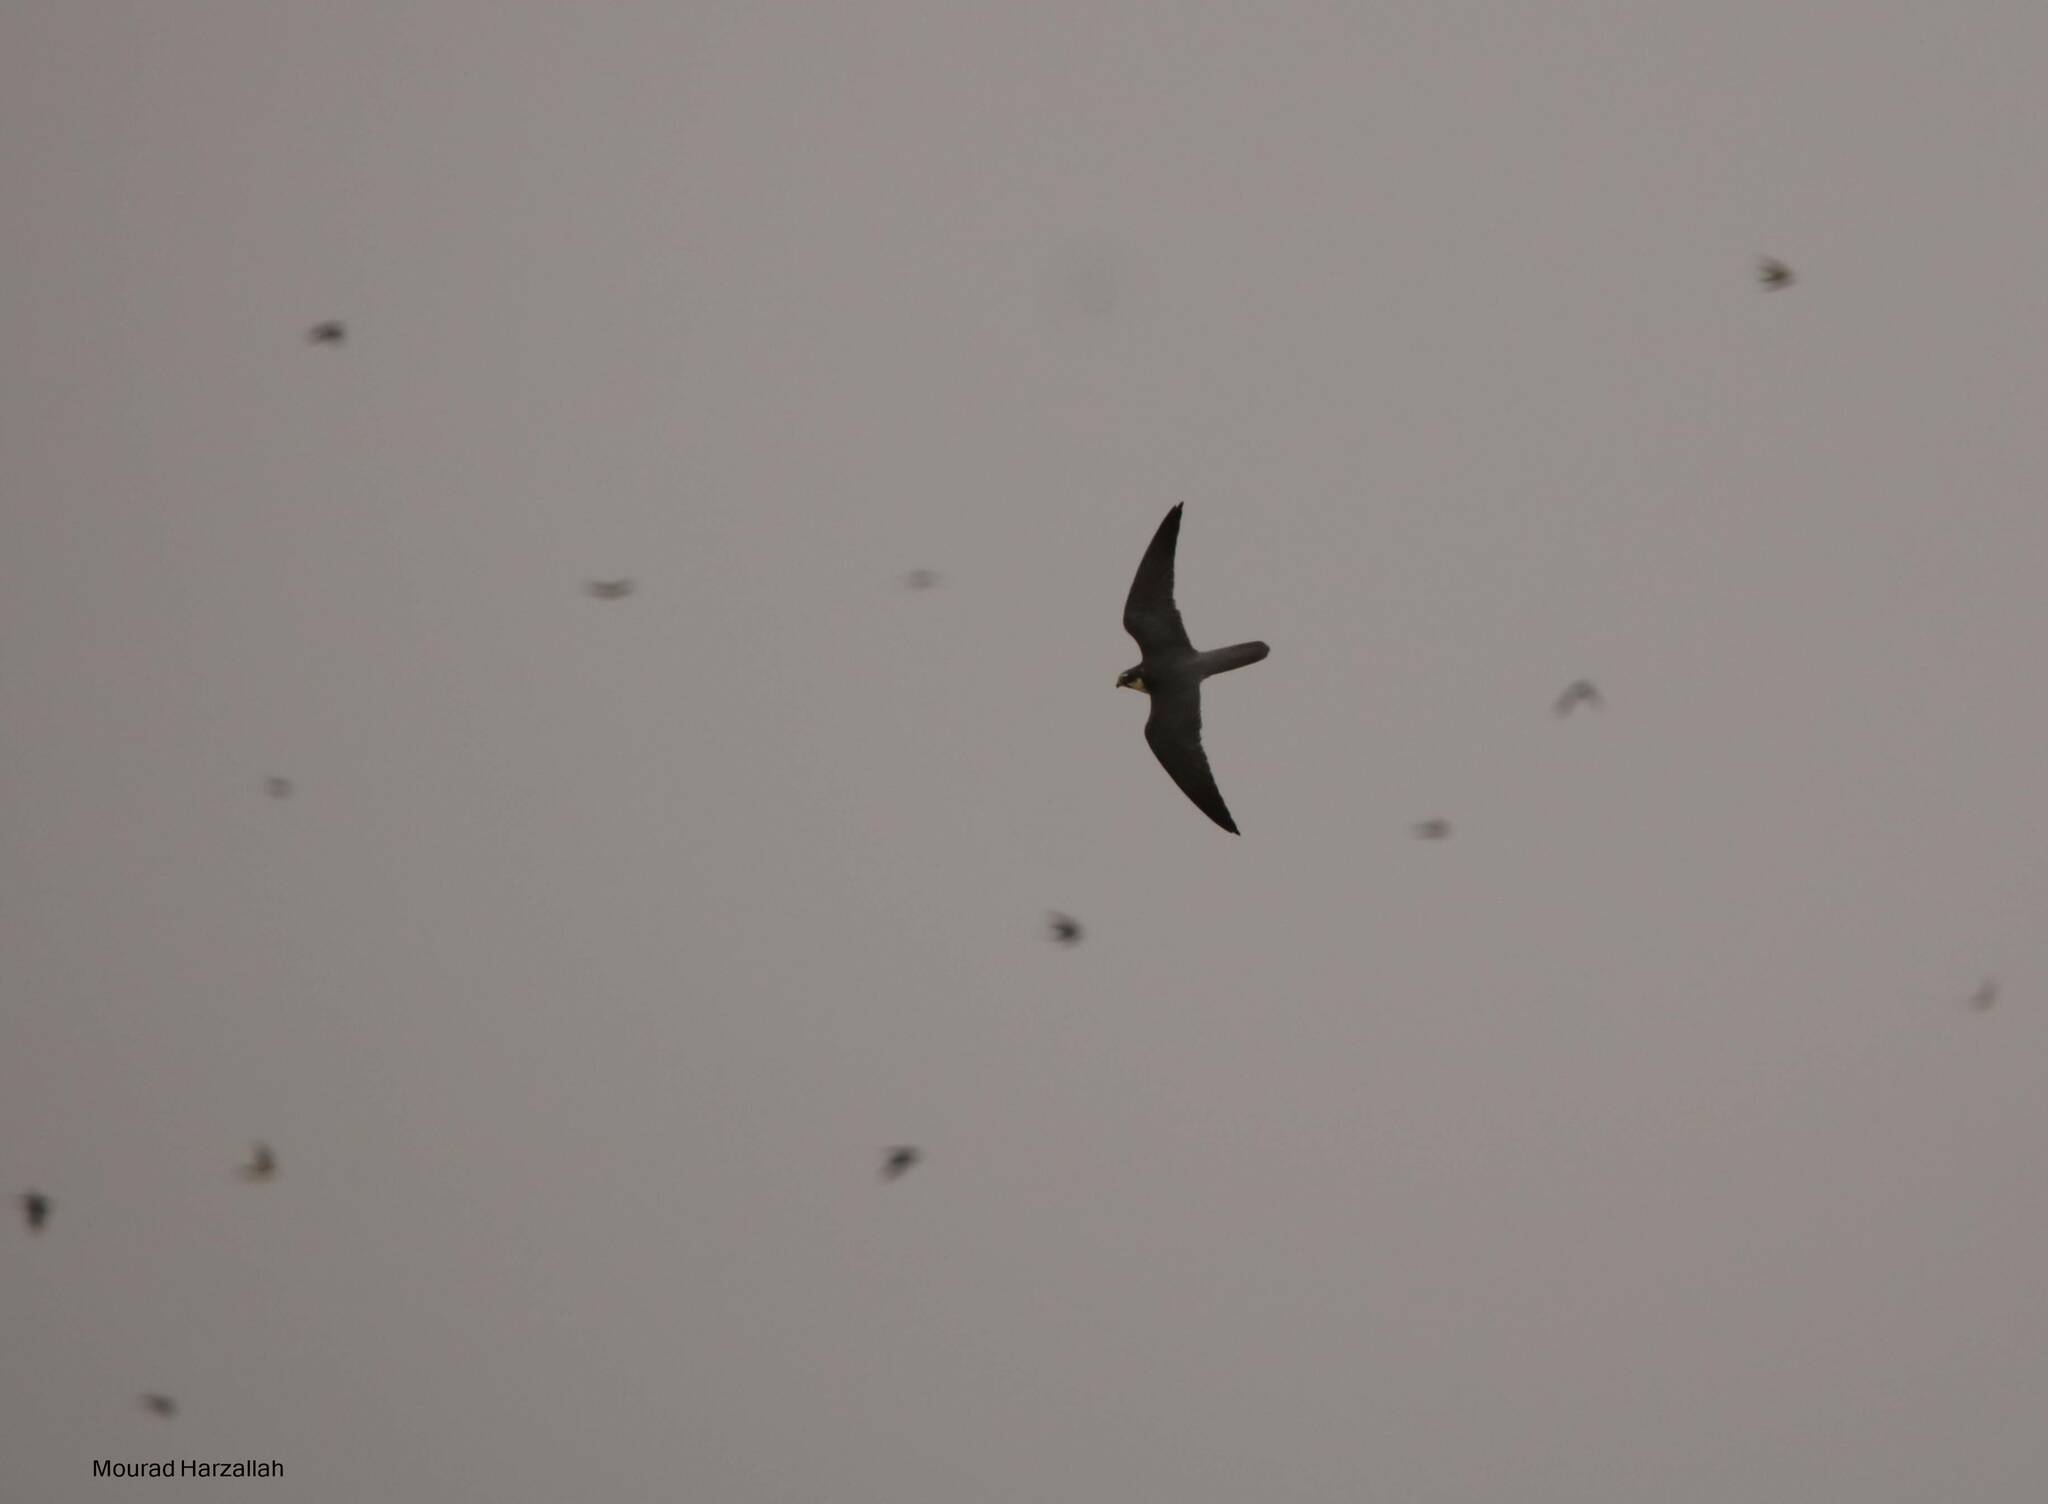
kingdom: Animalia
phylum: Chordata
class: Aves
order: Falconiformes
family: Falconidae
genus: Falco
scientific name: Falco subbuteo
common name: Eurasian hobby
